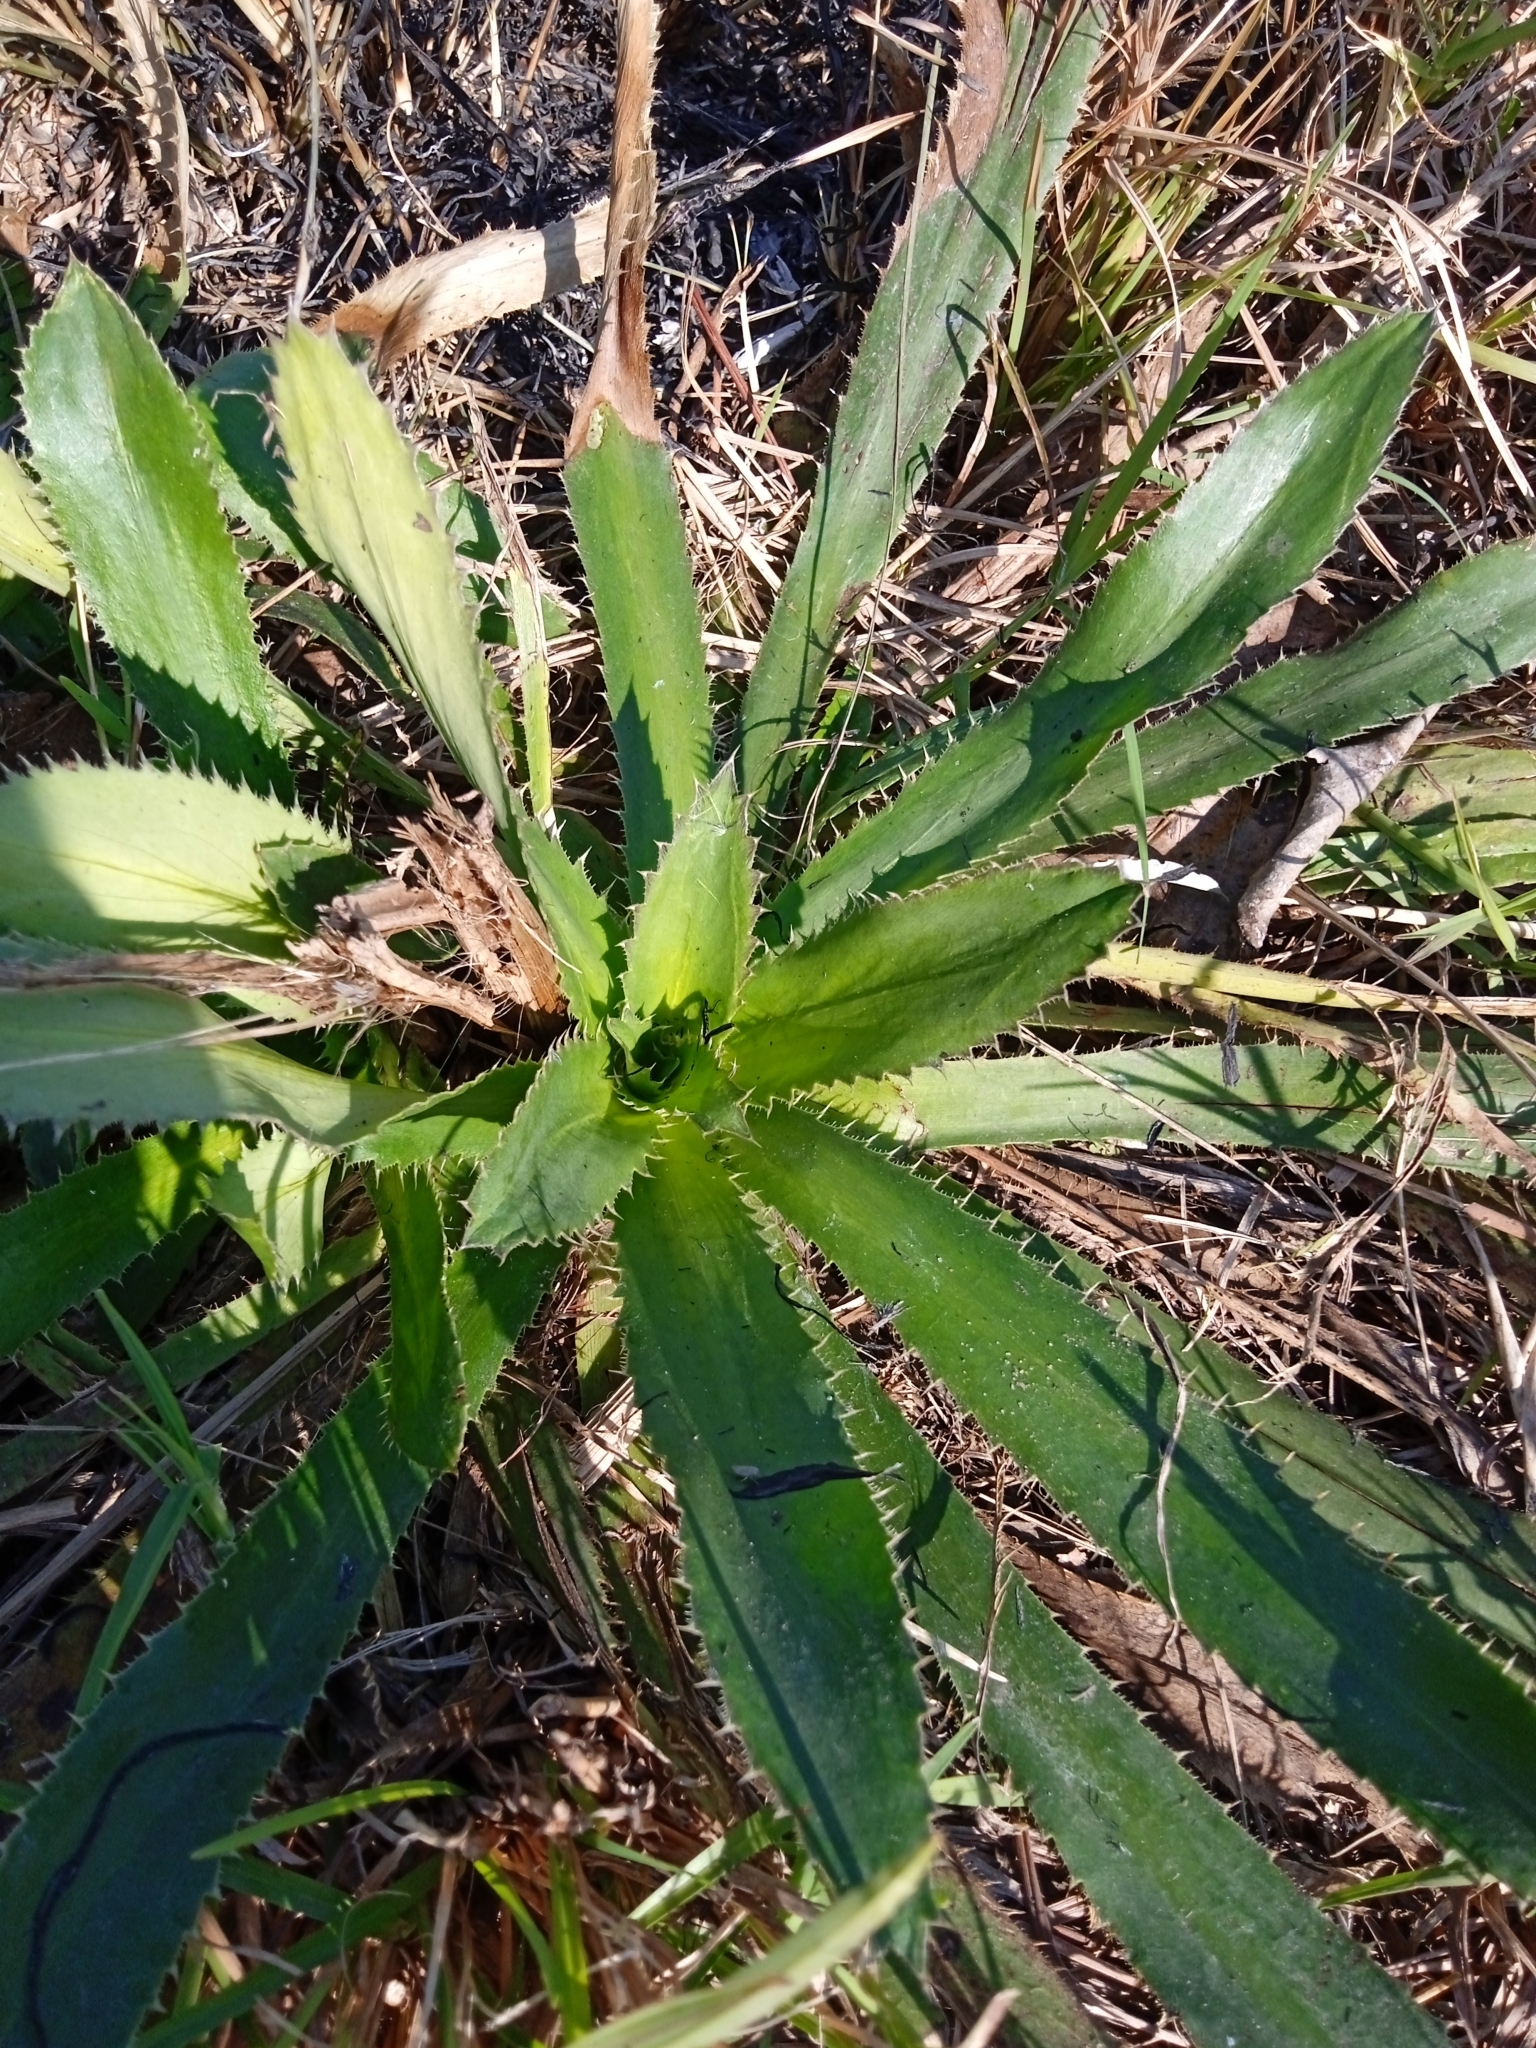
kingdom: Plantae
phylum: Tracheophyta
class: Magnoliopsida
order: Apiales
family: Apiaceae
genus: Eryngium
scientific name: Eryngium elegans
